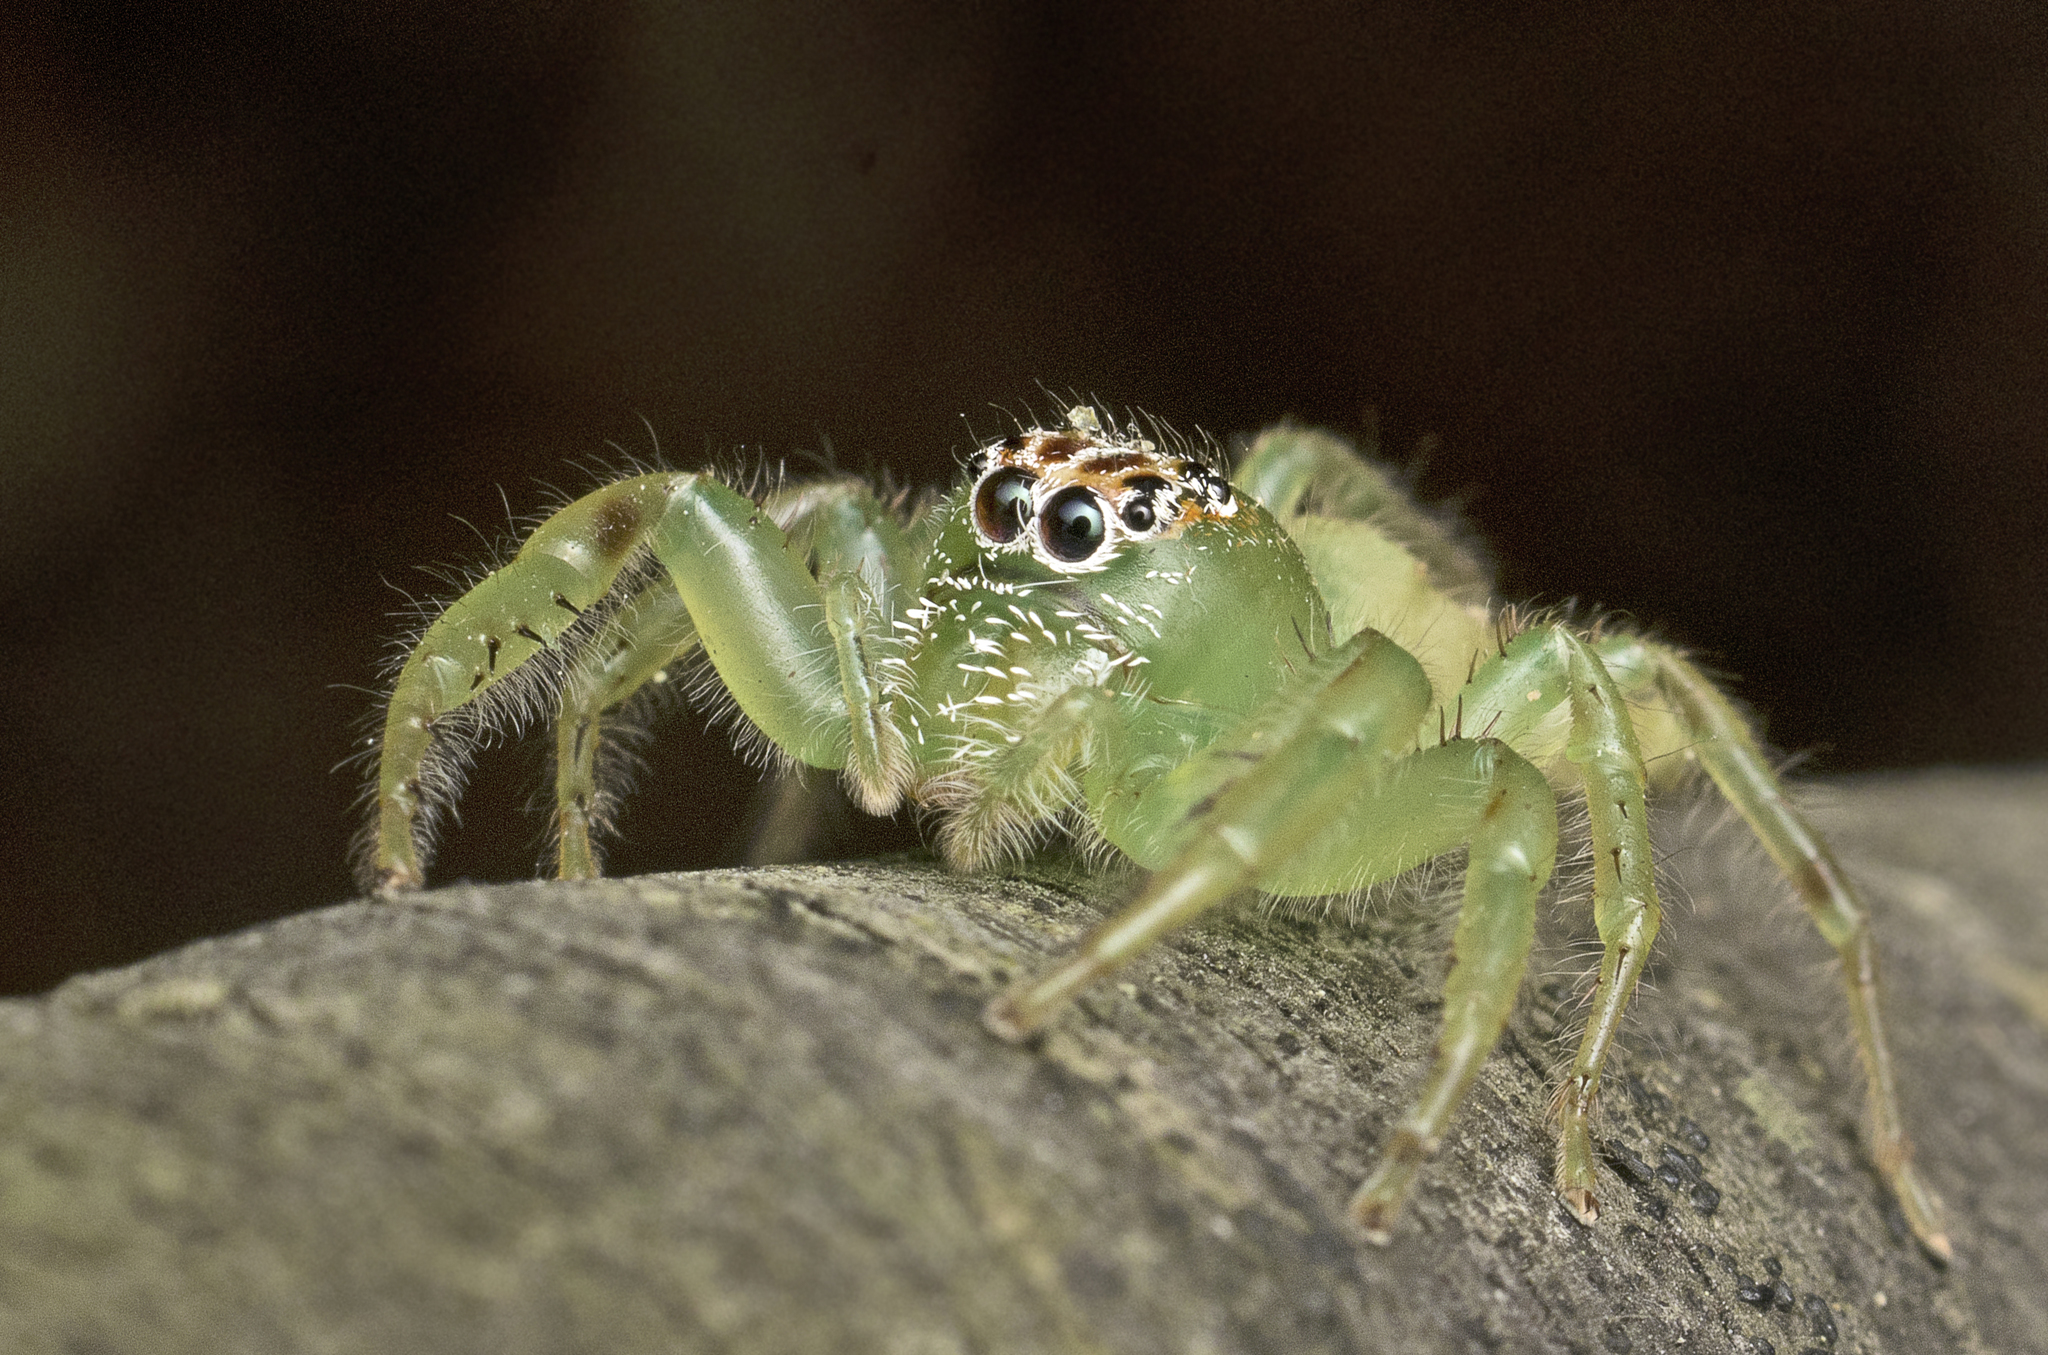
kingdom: Animalia
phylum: Arthropoda
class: Arachnida
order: Araneae
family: Salticidae
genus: Mopsus
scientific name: Mopsus mormon
